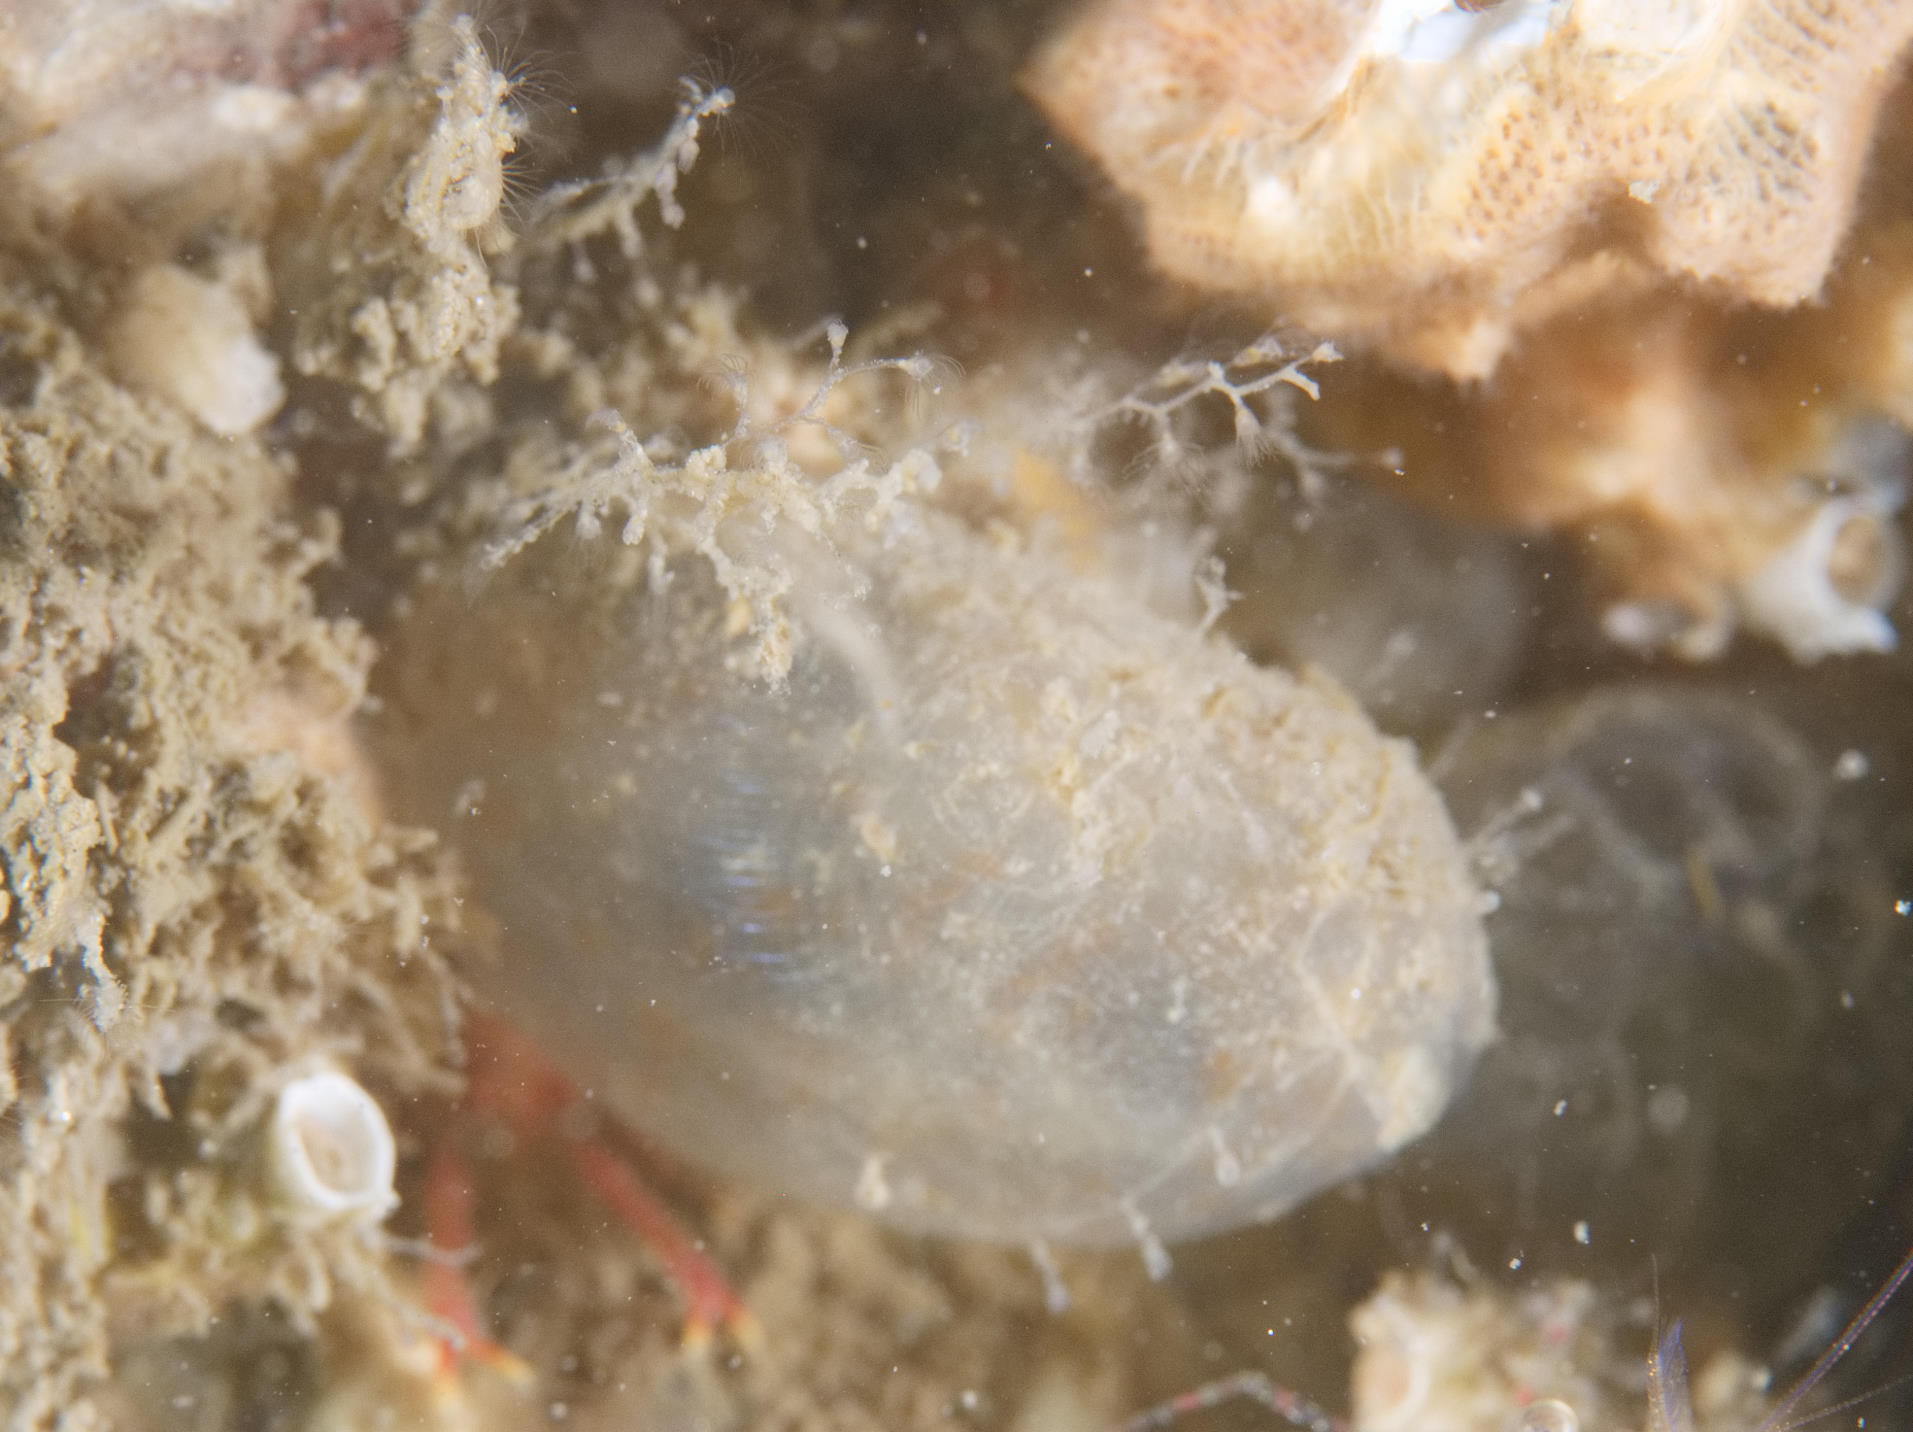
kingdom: Animalia
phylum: Chordata
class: Ascidiacea
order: Phlebobranchia
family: Ascidiidae
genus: Ascidiella
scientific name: Ascidiella aspersa
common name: Dirty sea-squirt
